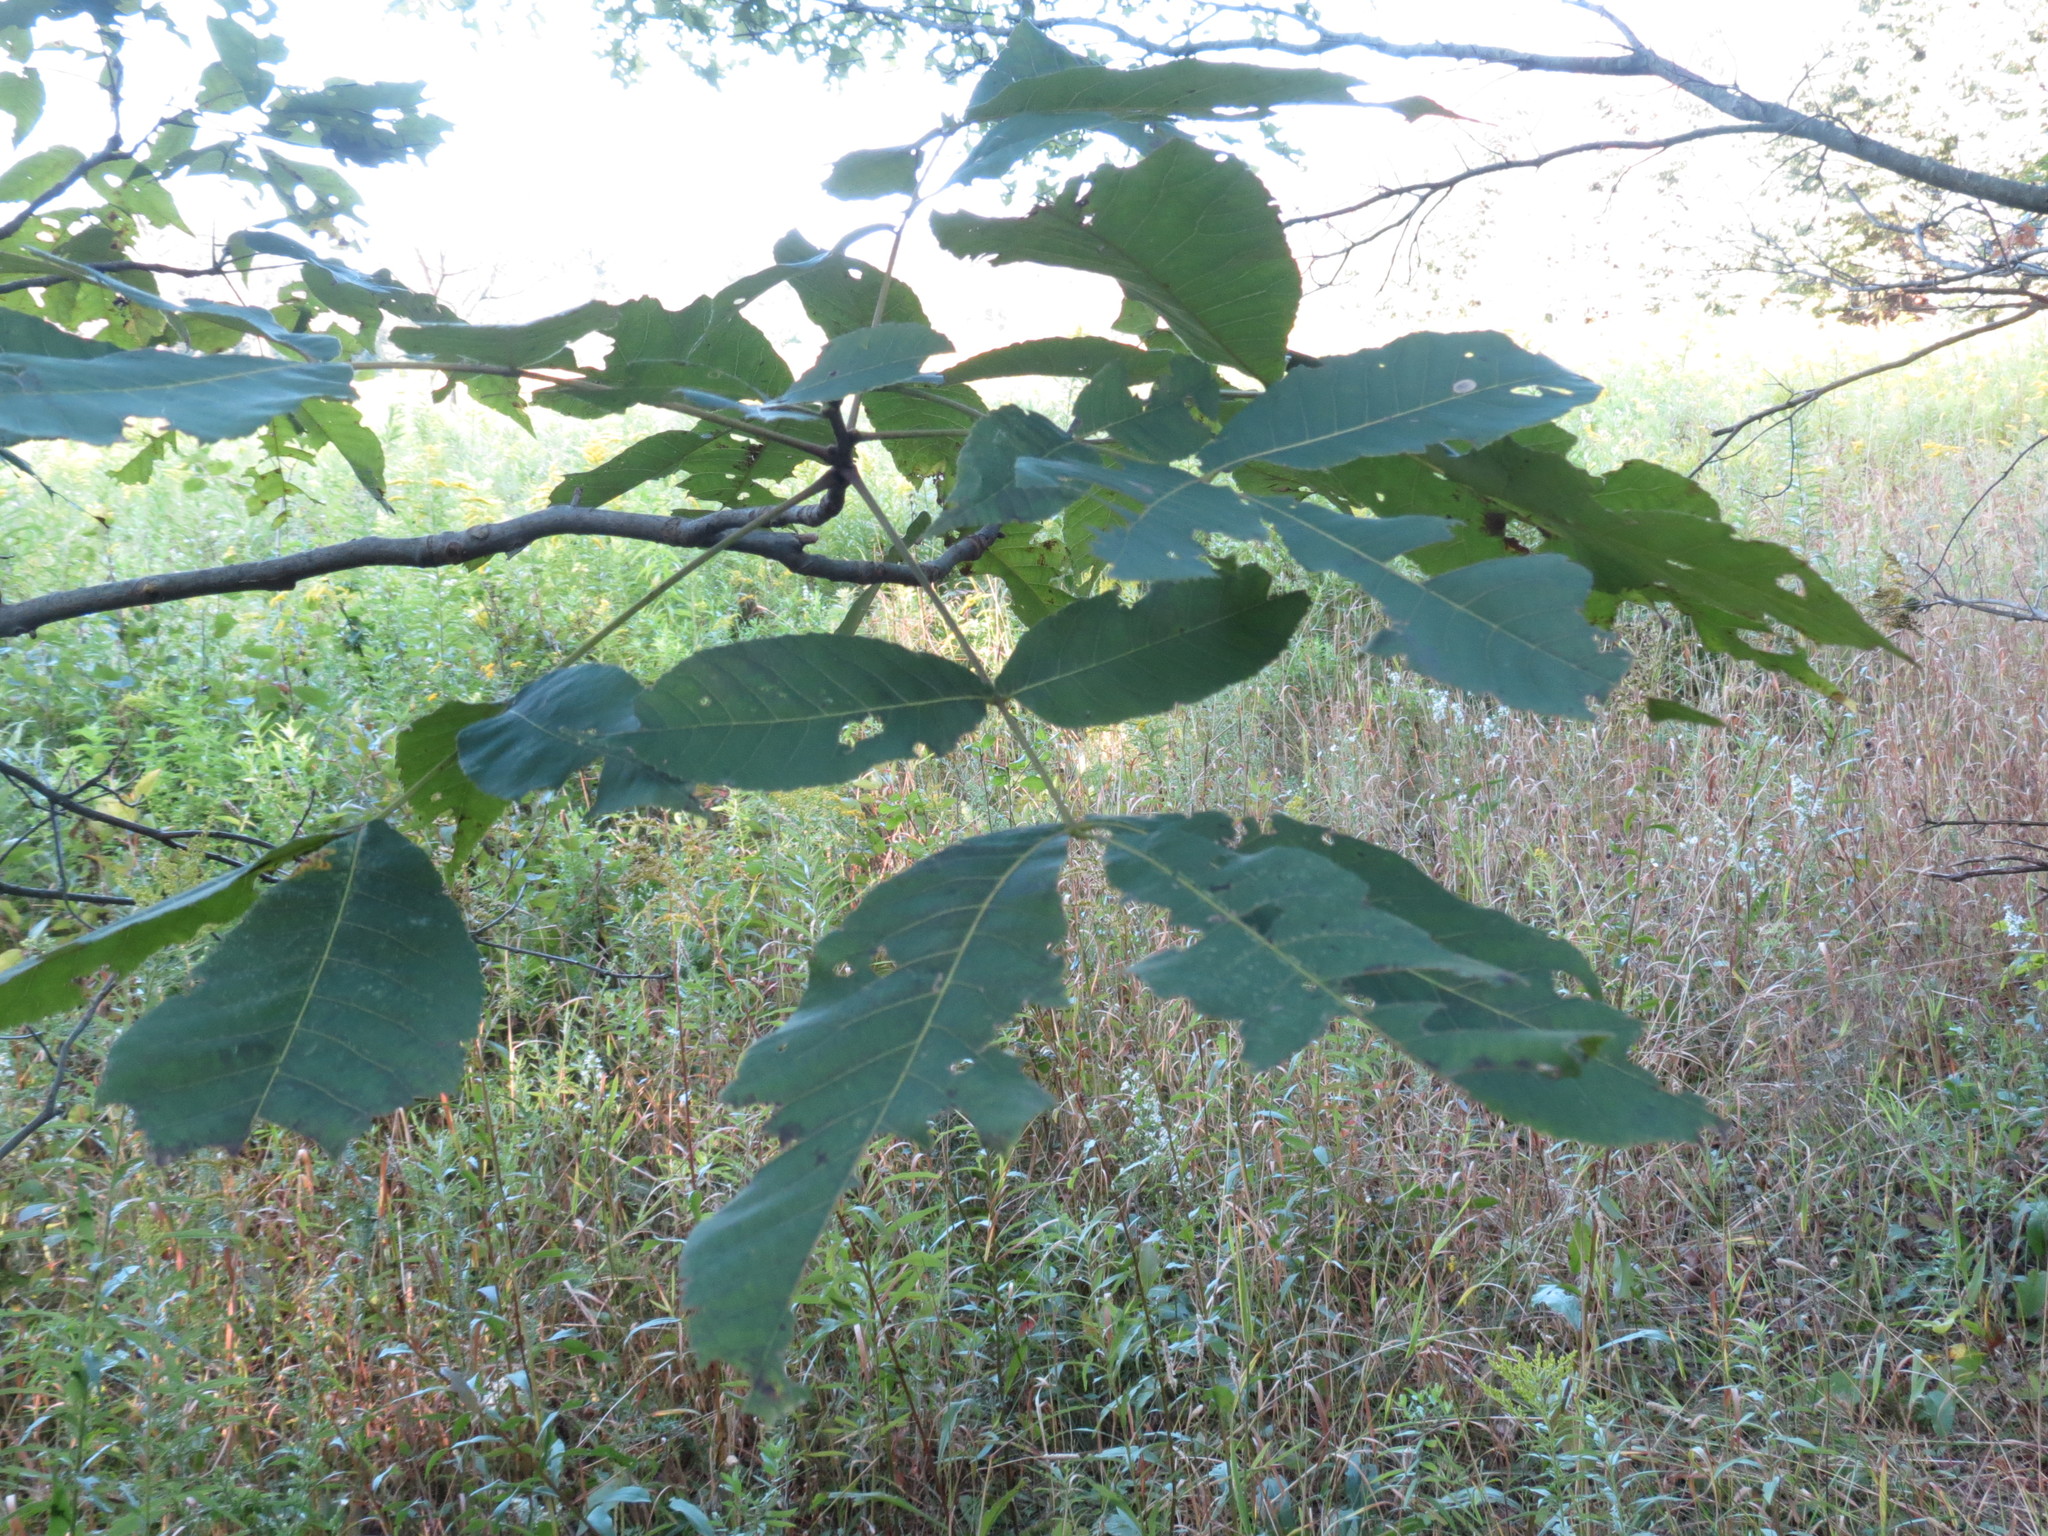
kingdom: Plantae
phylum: Tracheophyta
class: Magnoliopsida
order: Fagales
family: Juglandaceae
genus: Carya
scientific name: Carya ovata
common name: Shagbark hickory
